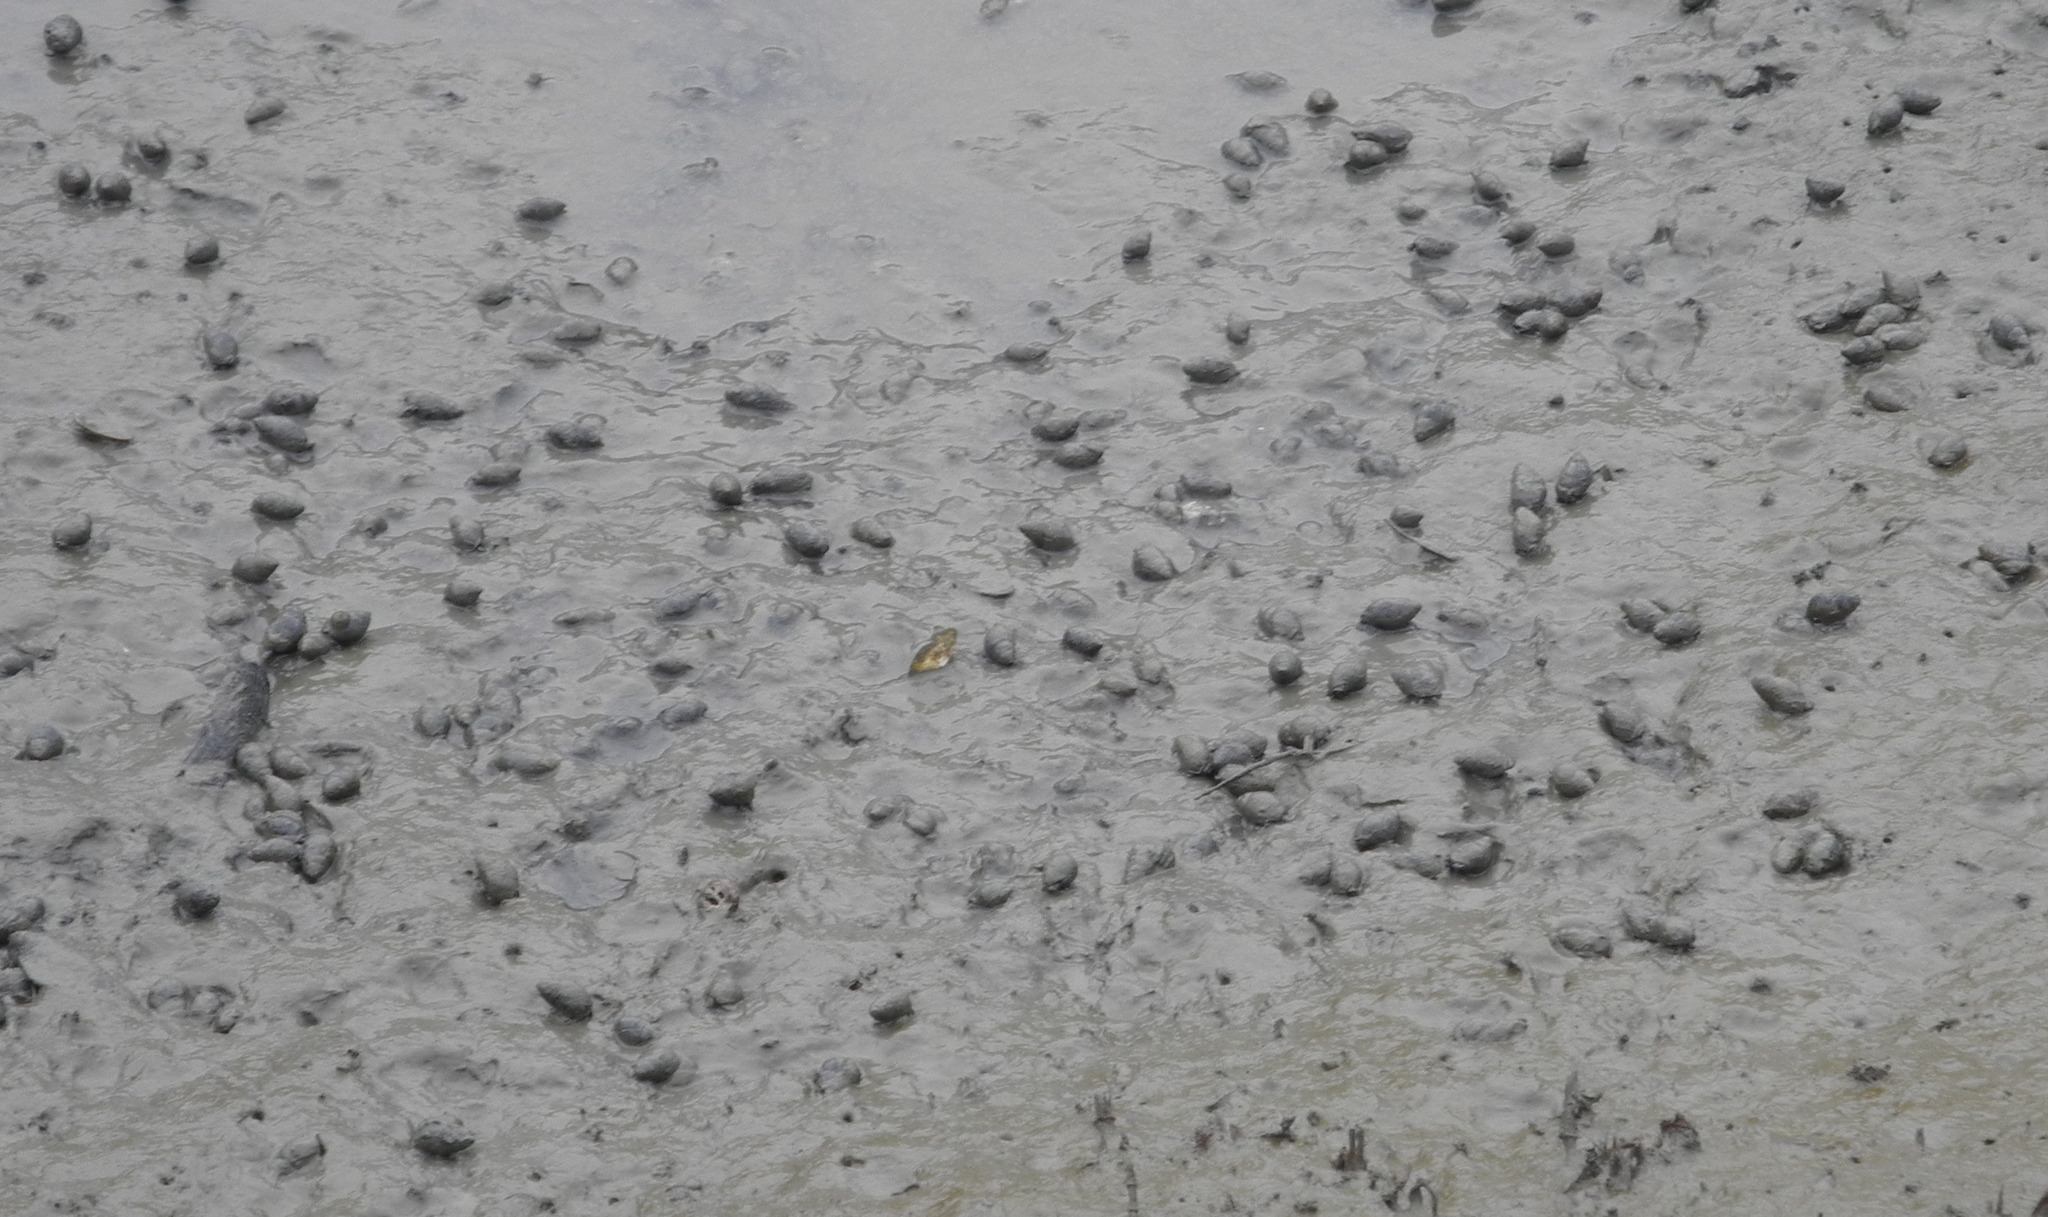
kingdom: Animalia
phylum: Mollusca
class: Gastropoda
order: Neogastropoda
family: Nassariidae
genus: Ilyanassa
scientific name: Ilyanassa obsoleta
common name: Eastern mudsnail
